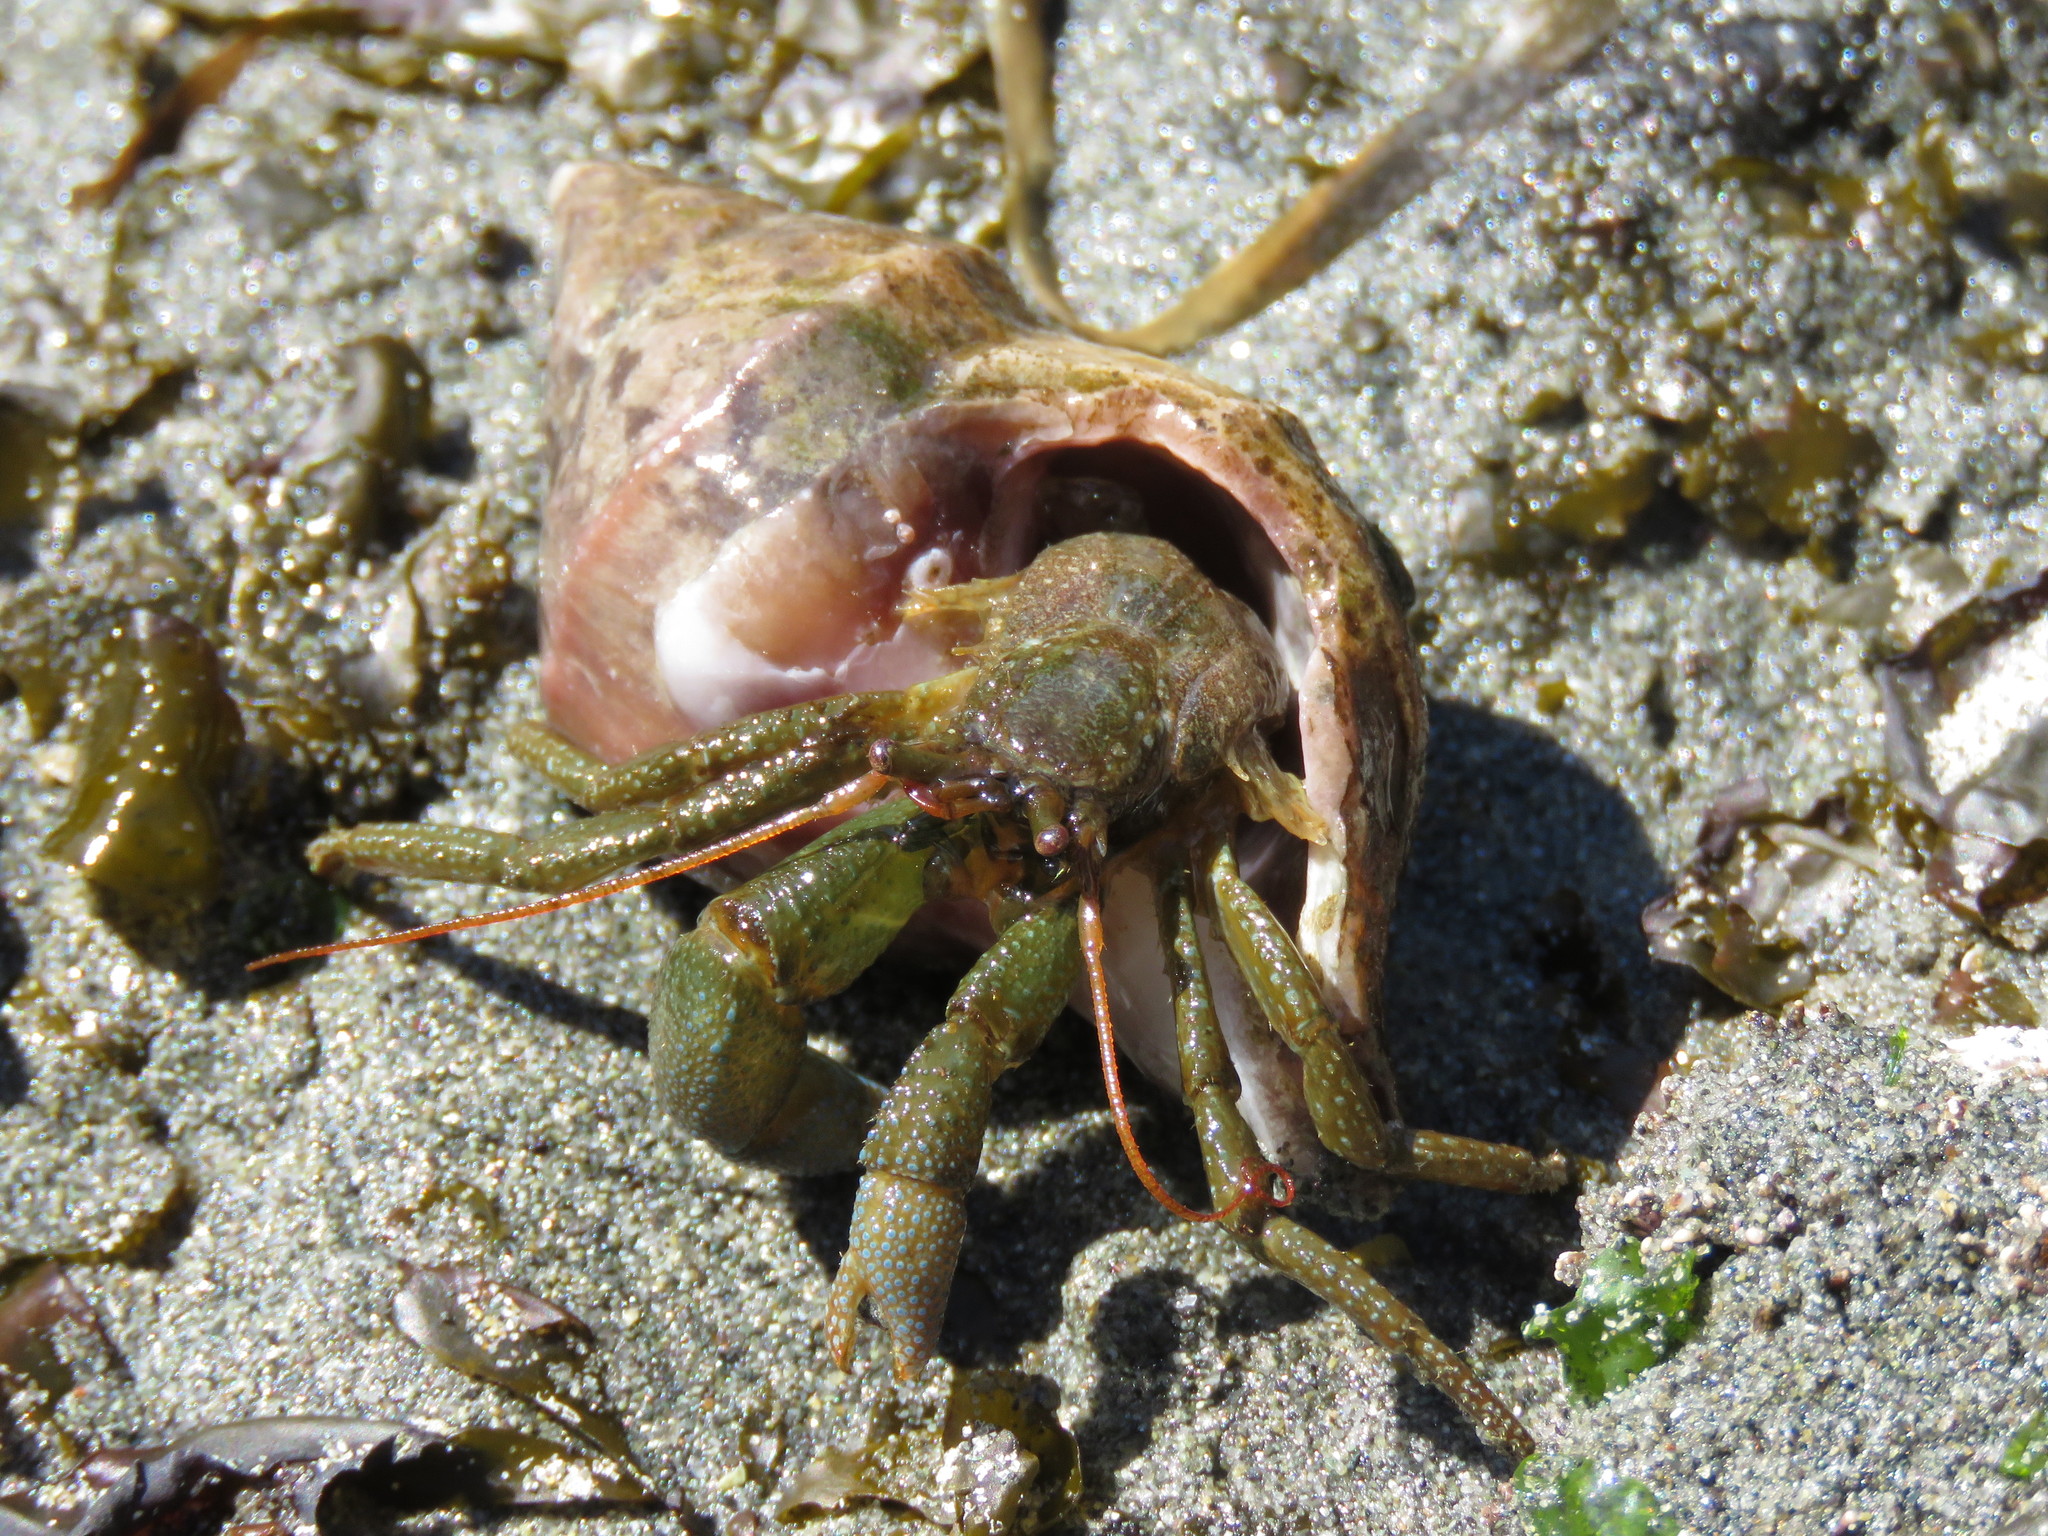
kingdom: Animalia
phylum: Arthropoda
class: Malacostraca
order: Decapoda
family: Paguridae
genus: Pagurus
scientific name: Pagurus granosimanus
